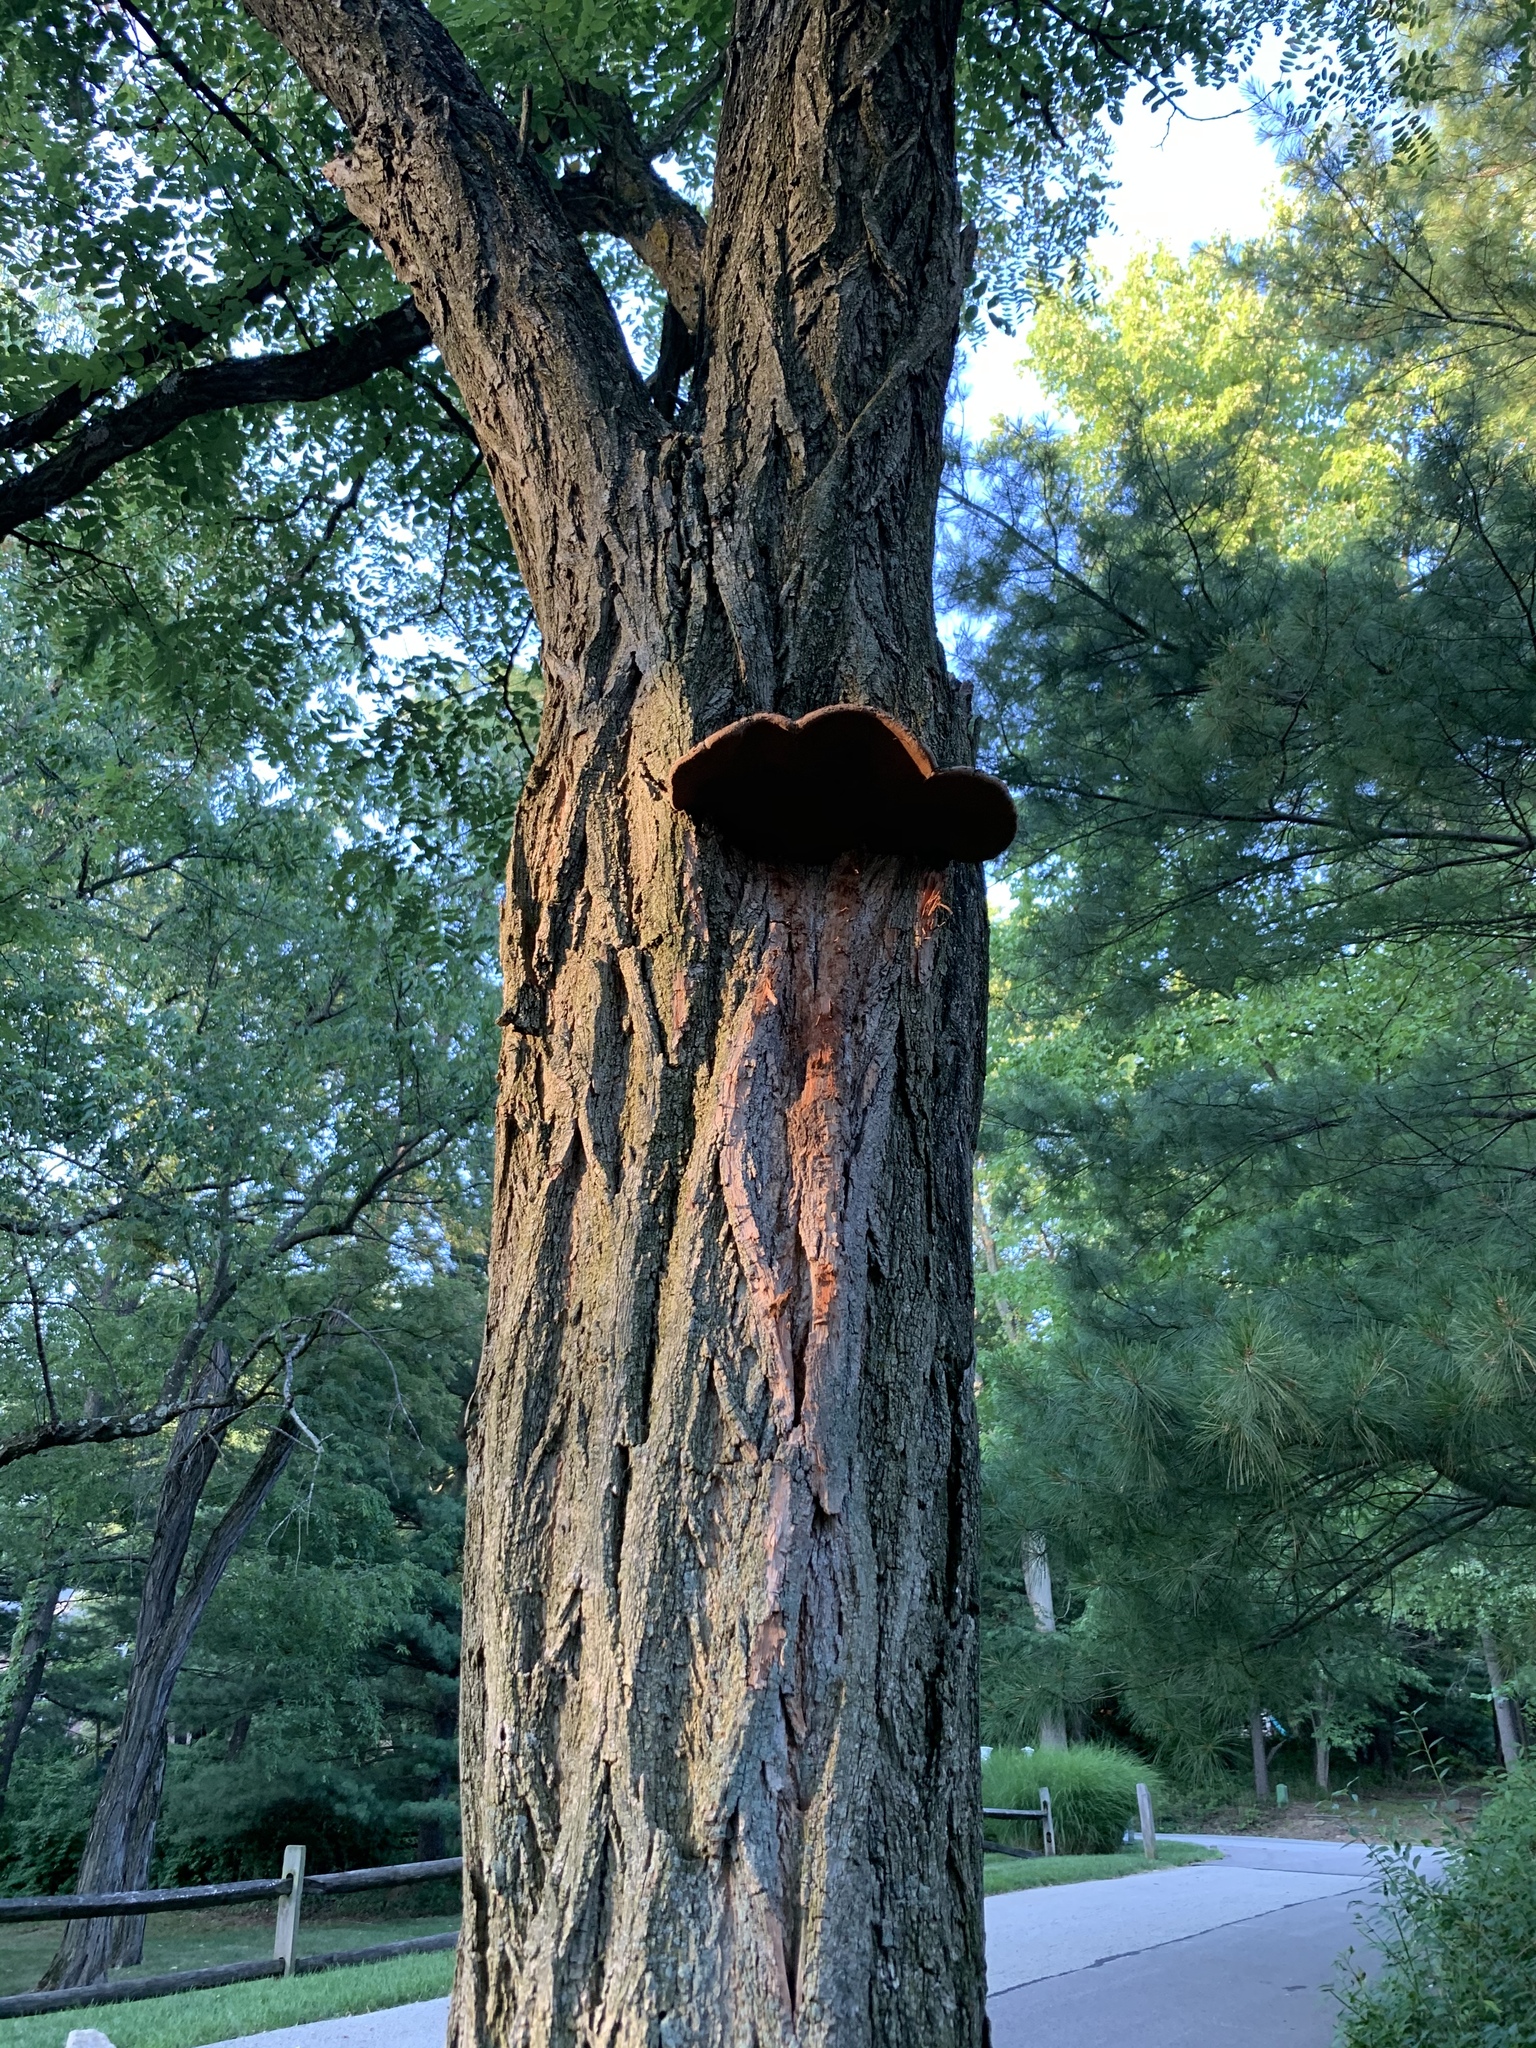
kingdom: Fungi
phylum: Basidiomycota
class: Agaricomycetes
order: Hymenochaetales
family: Hymenochaetaceae
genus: Phellinus
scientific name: Phellinus robiniae
